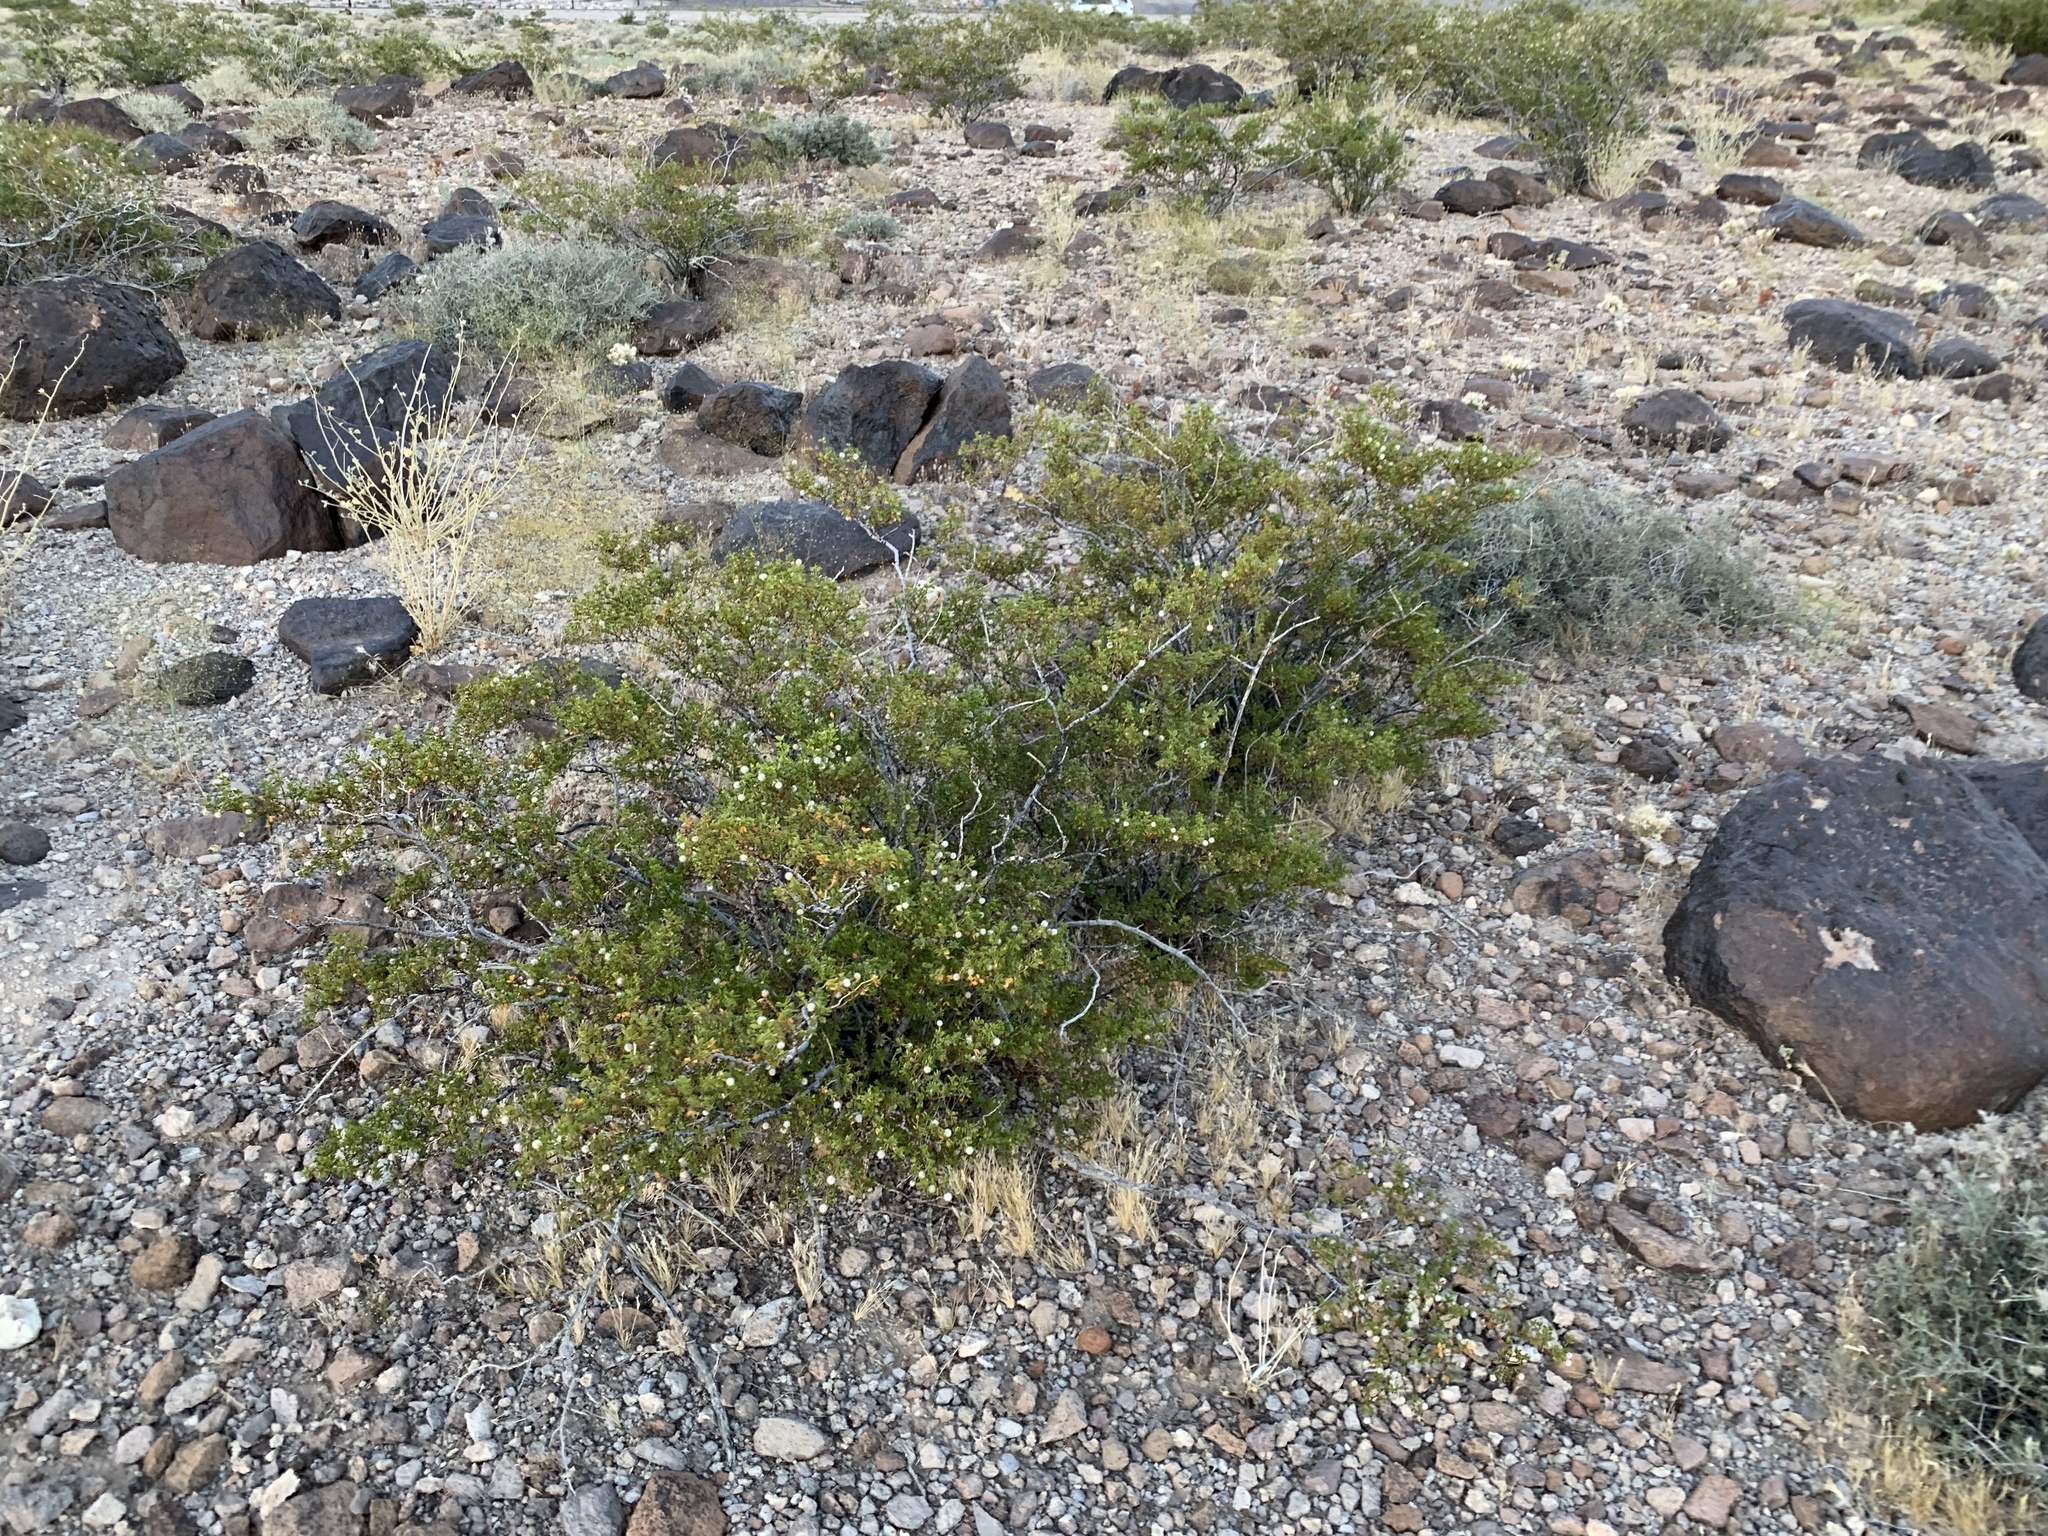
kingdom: Plantae
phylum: Tracheophyta
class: Magnoliopsida
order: Zygophyllales
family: Zygophyllaceae
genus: Larrea
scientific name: Larrea tridentata
